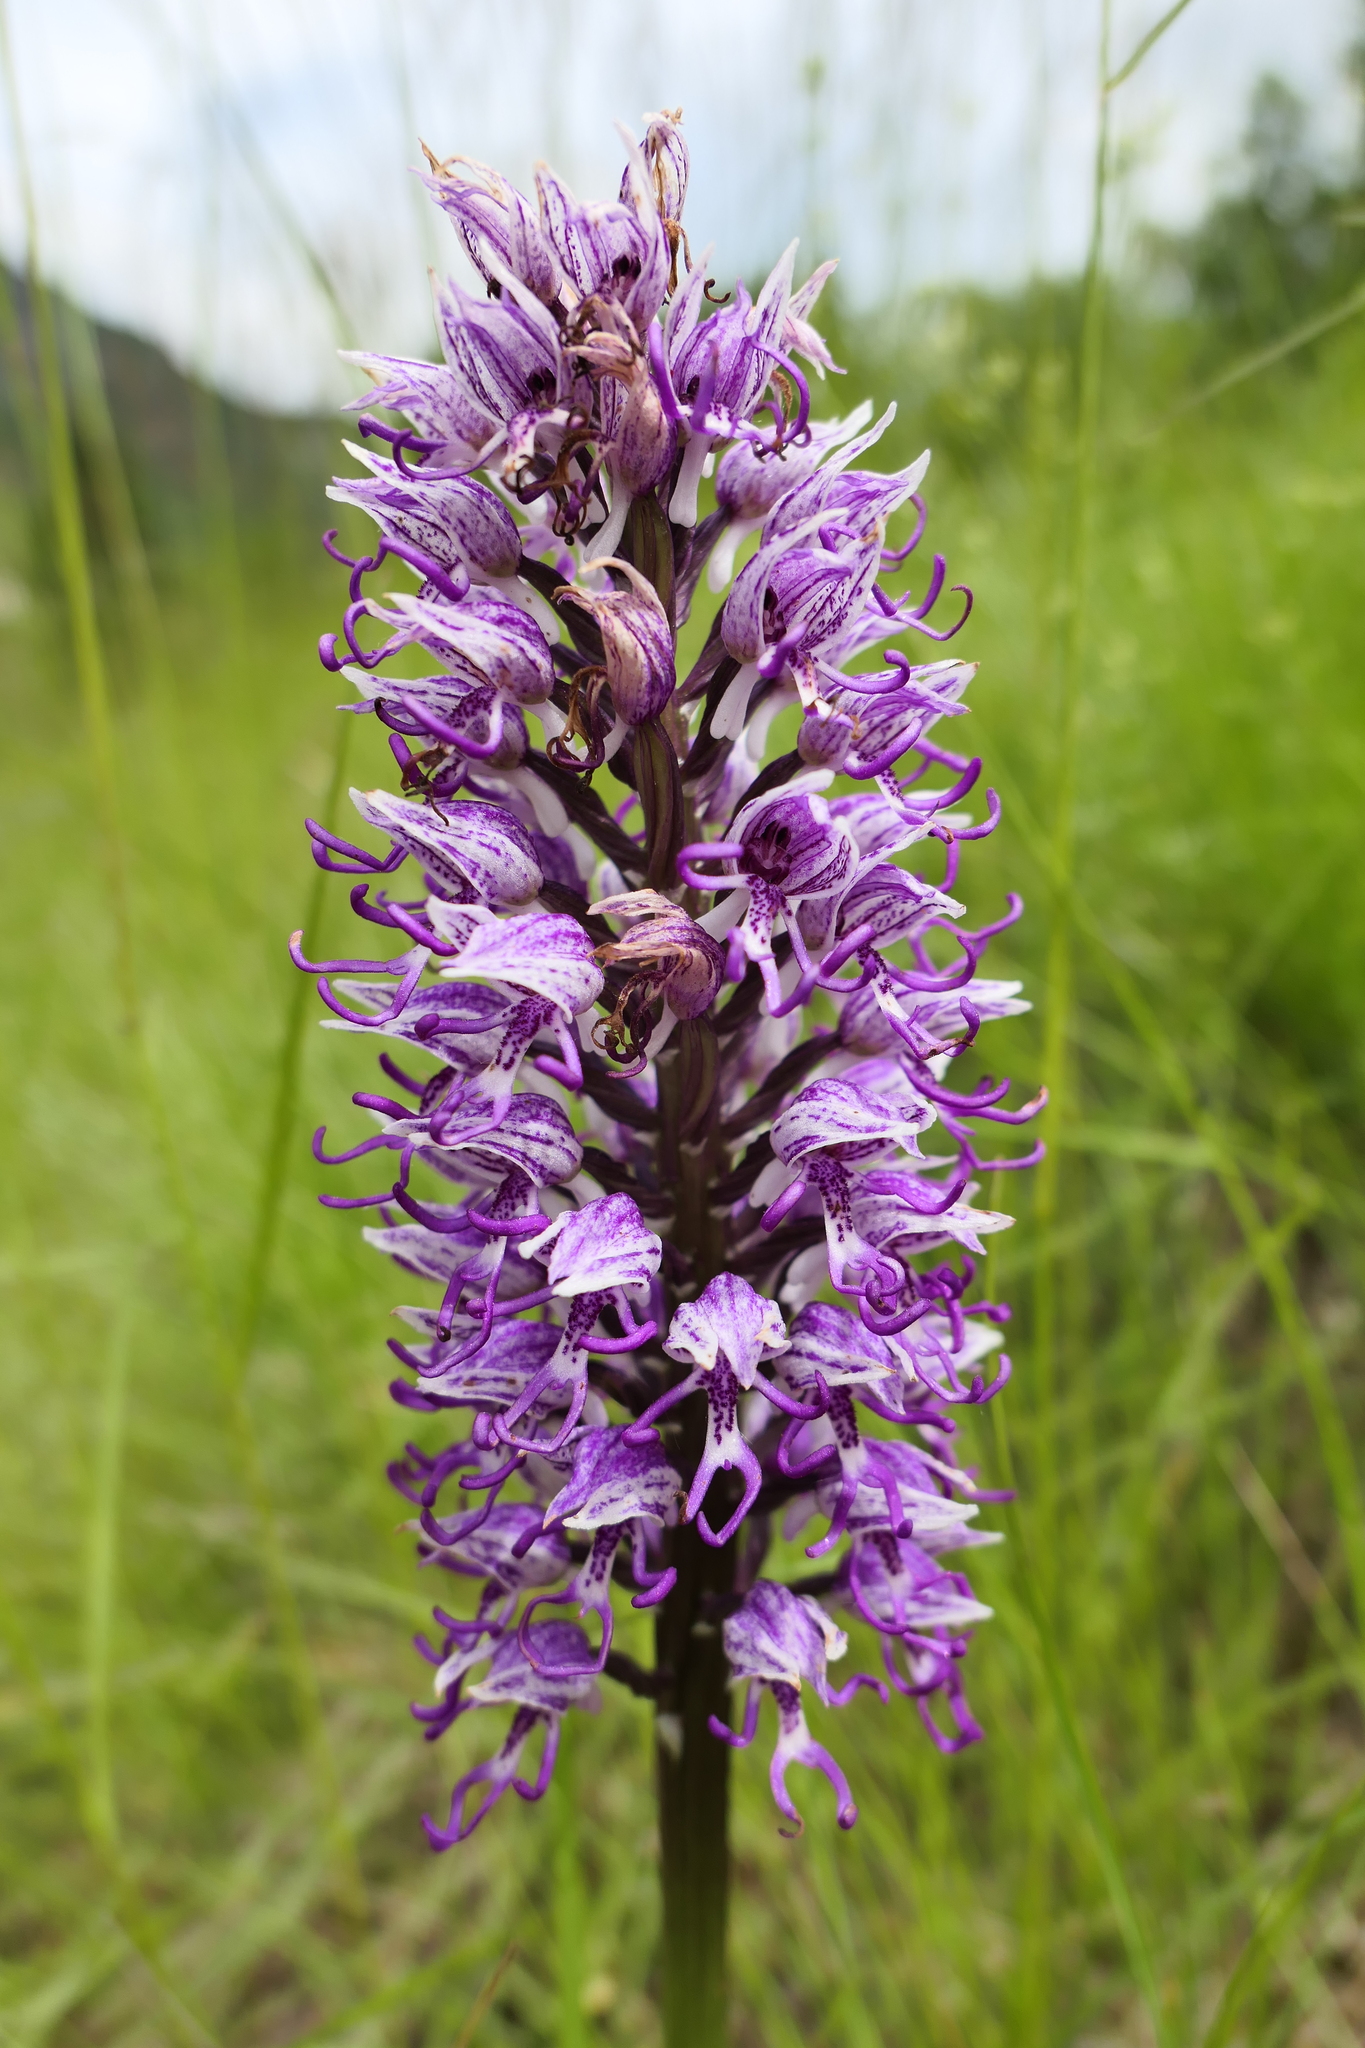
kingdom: Plantae
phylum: Tracheophyta
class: Liliopsida
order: Asparagales
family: Orchidaceae
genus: Orchis
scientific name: Orchis simia
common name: Monkey orchid
